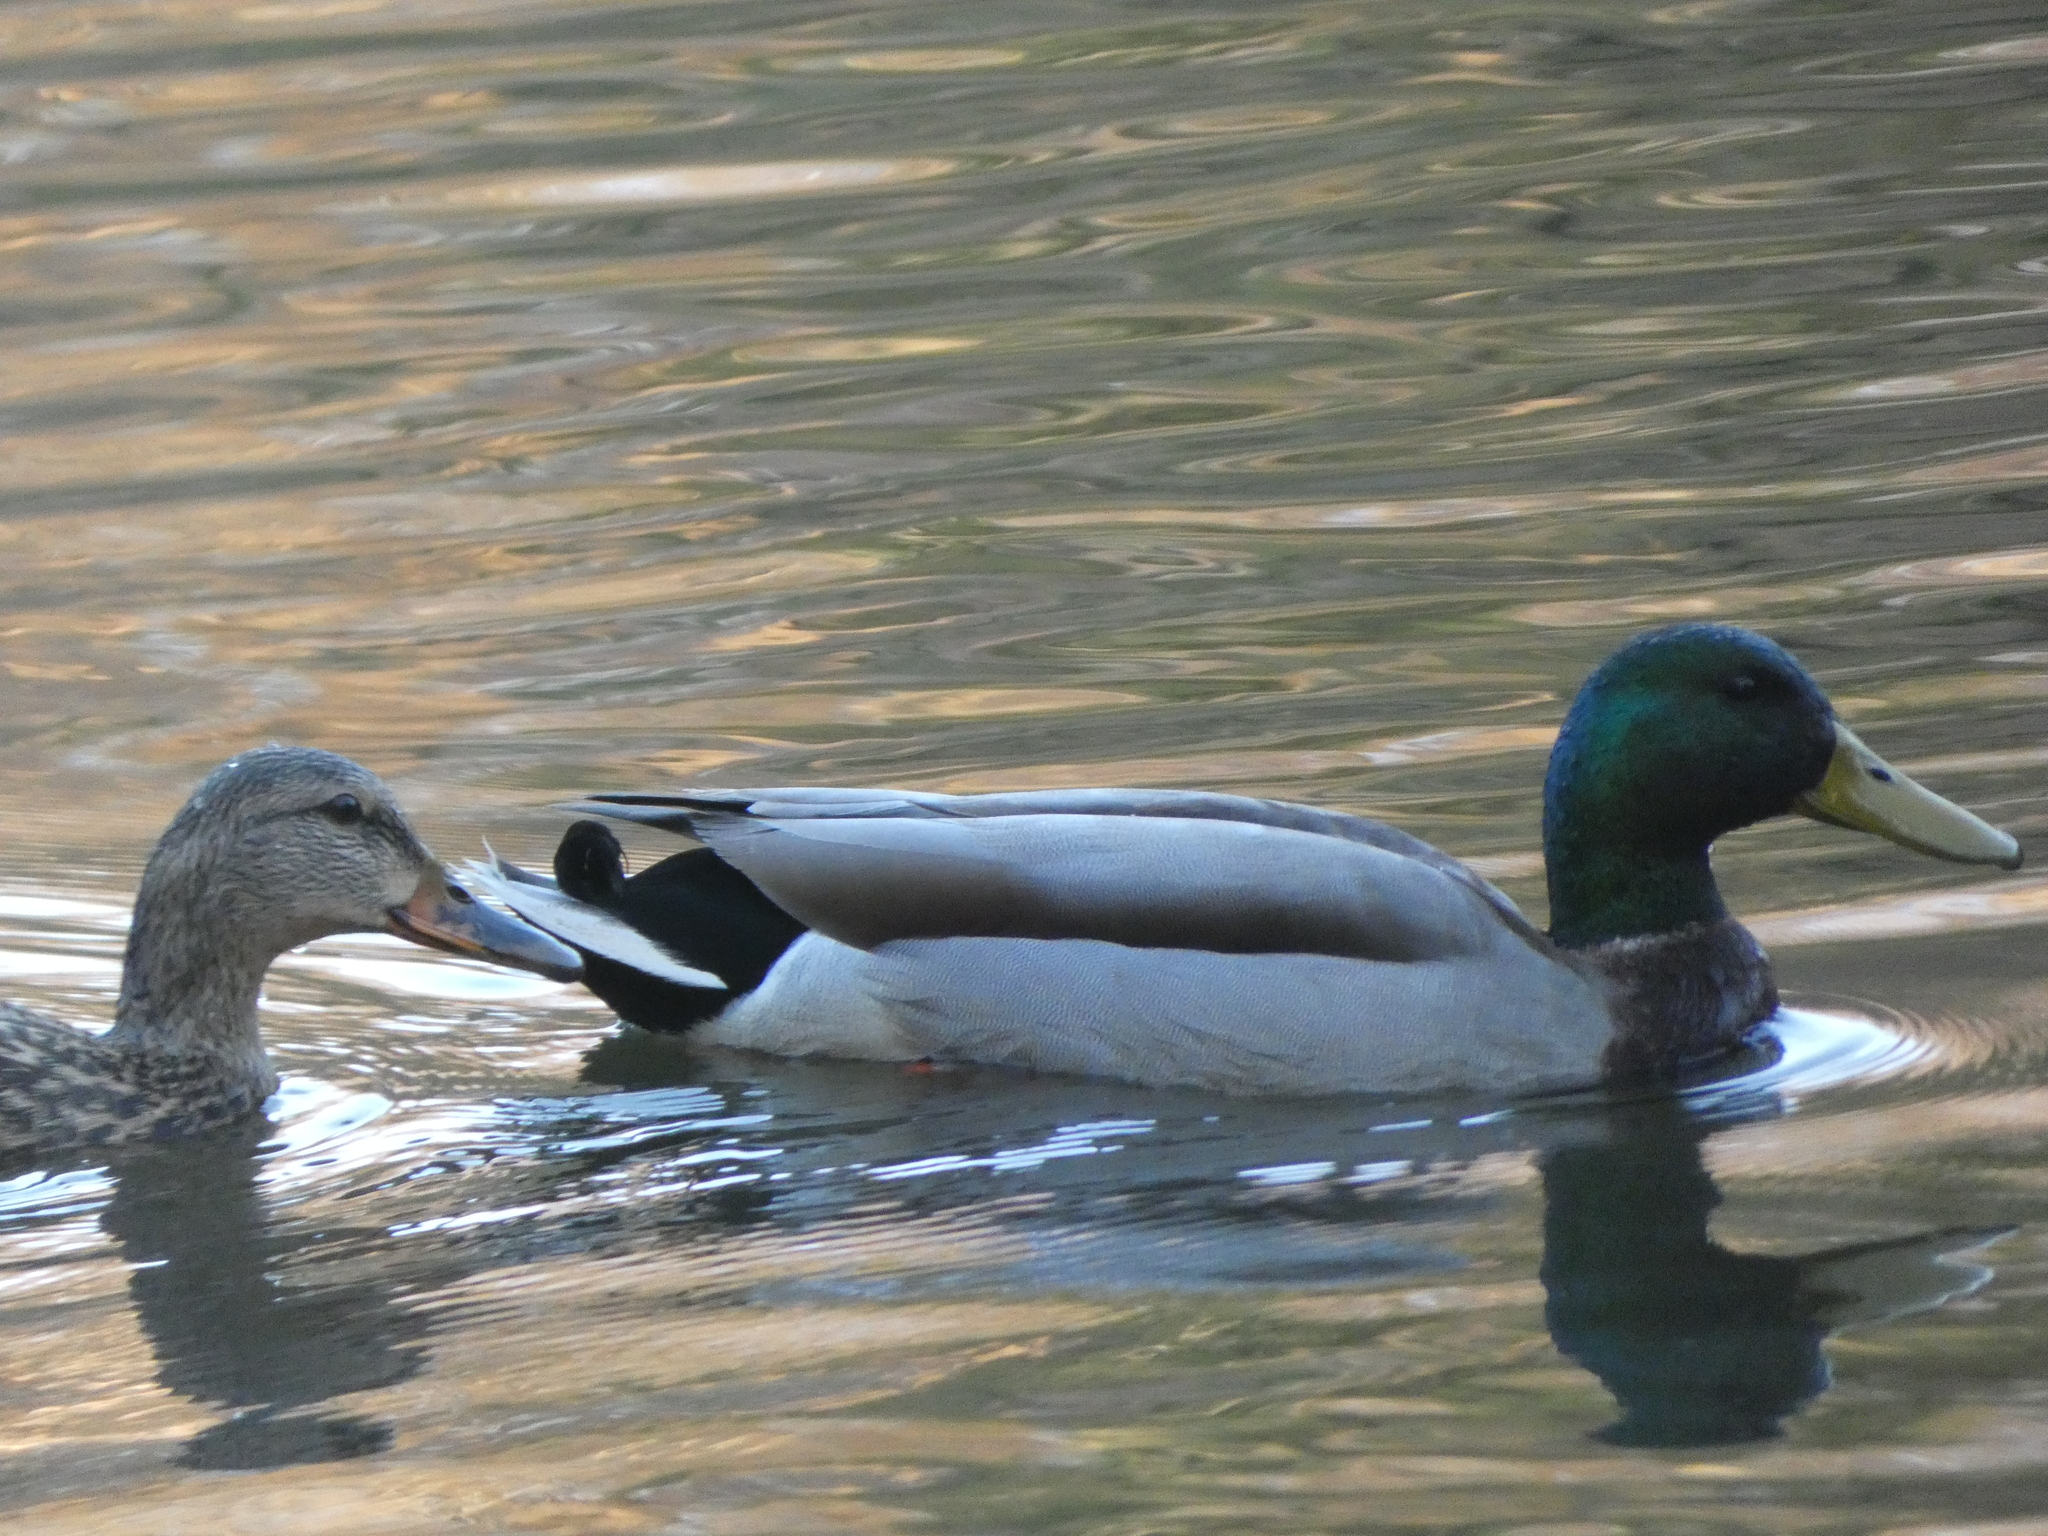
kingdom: Animalia
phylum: Chordata
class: Aves
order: Anseriformes
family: Anatidae
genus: Anas
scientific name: Anas platyrhynchos
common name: Mallard
